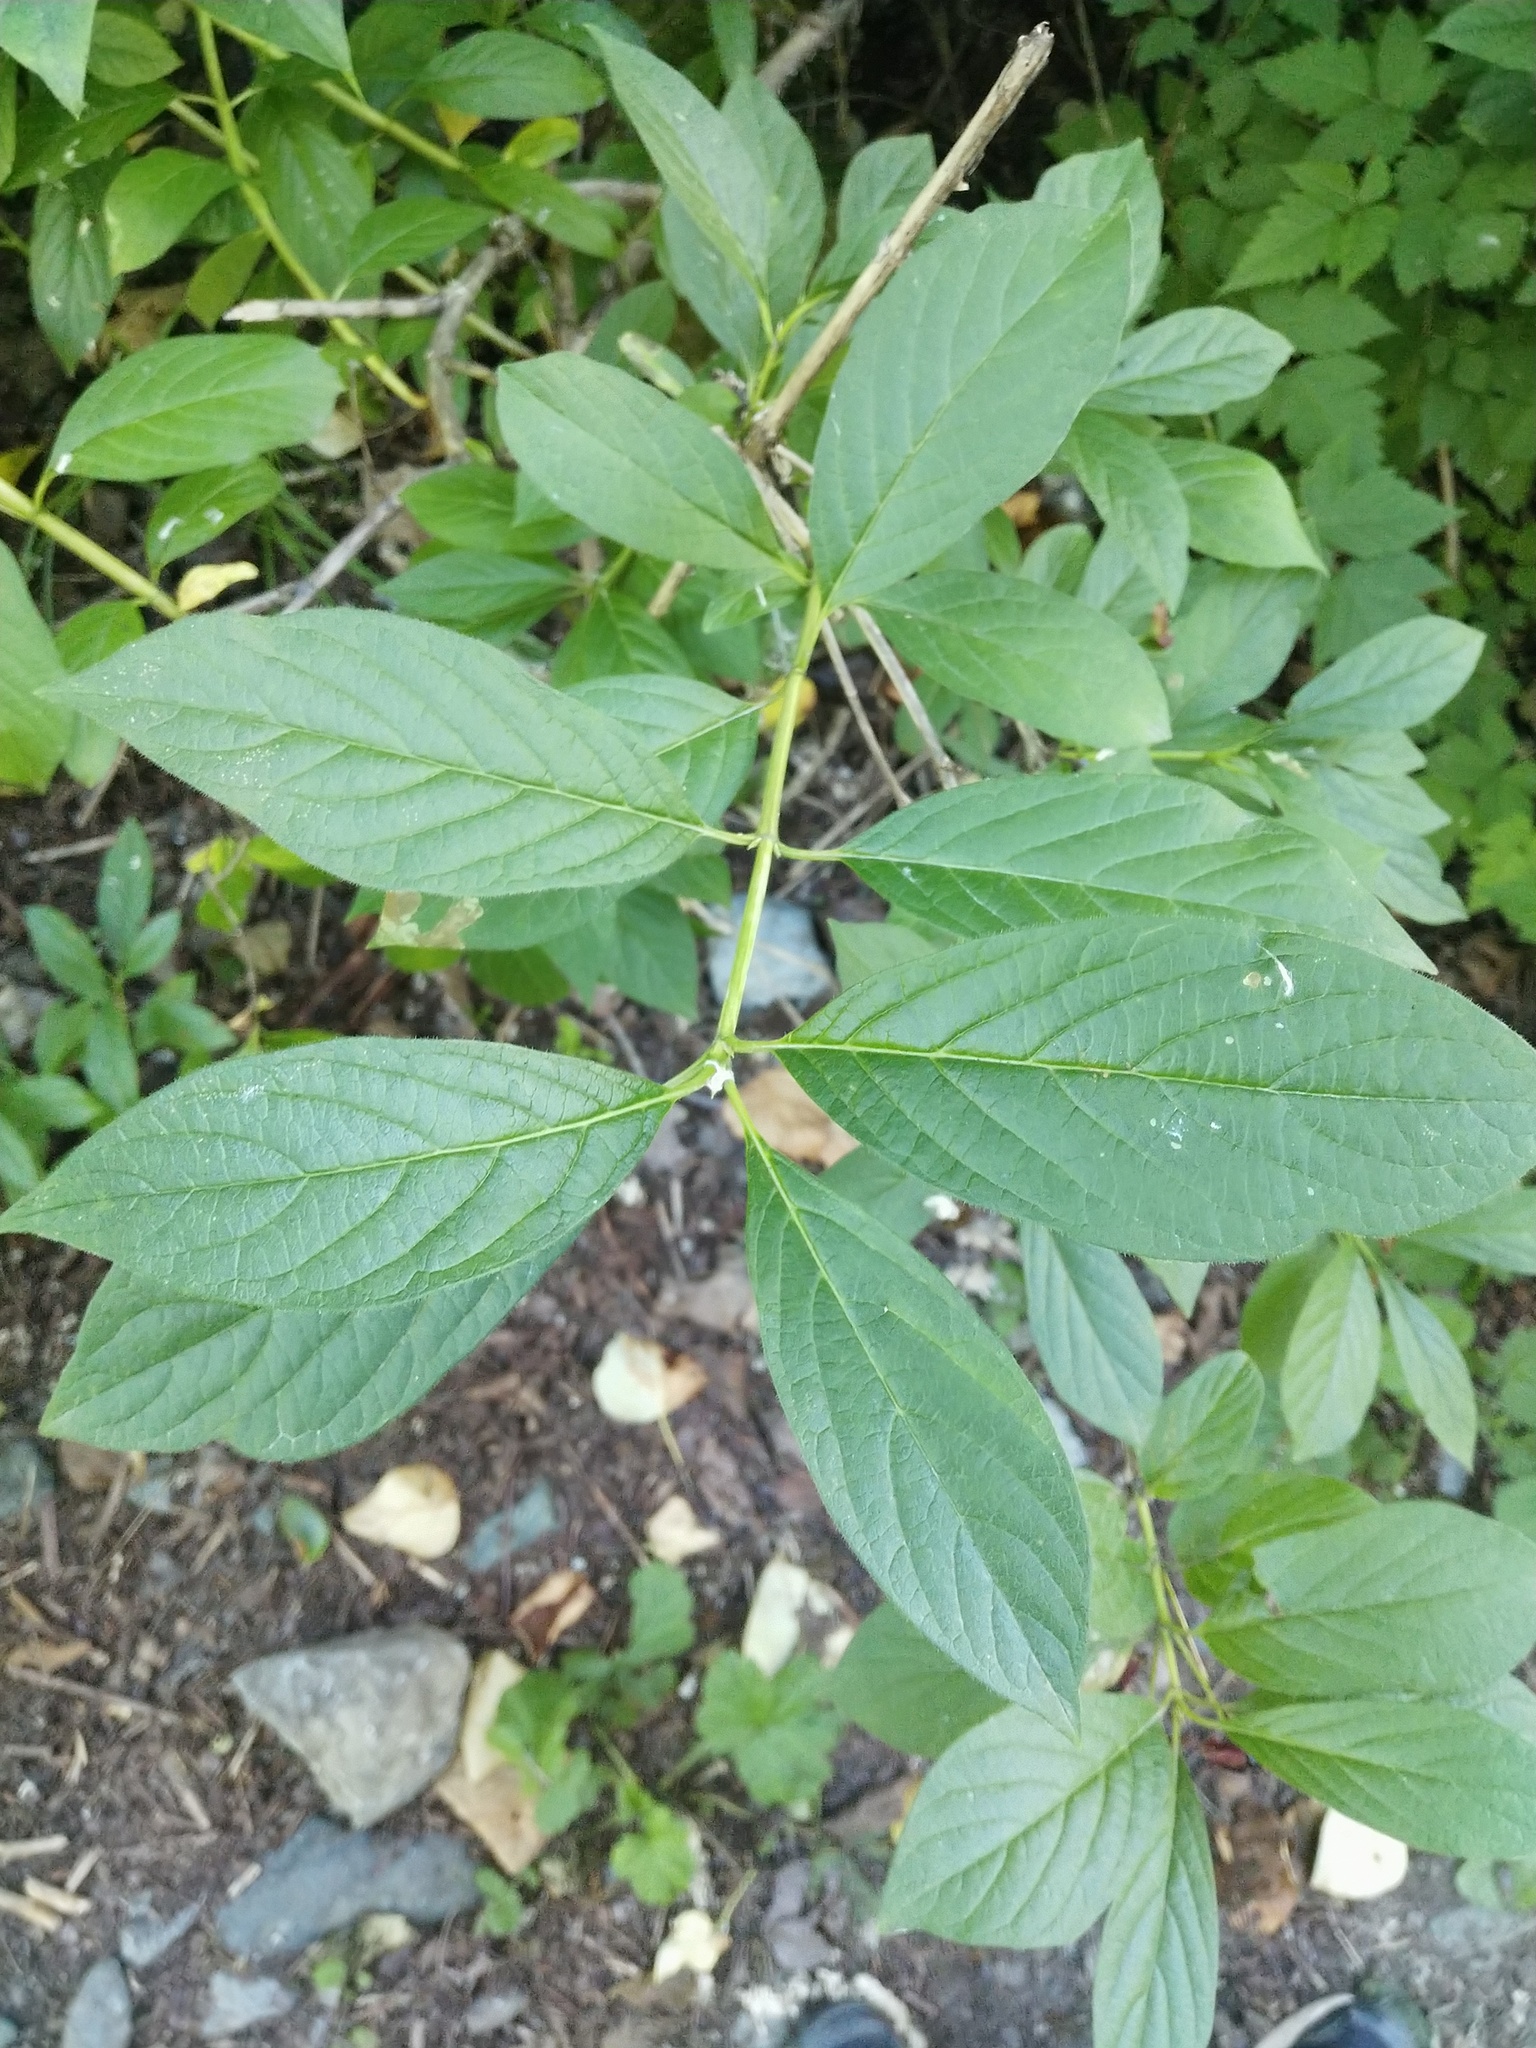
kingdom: Plantae
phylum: Tracheophyta
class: Magnoliopsida
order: Dipsacales
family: Caprifoliaceae
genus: Lonicera
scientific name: Lonicera involucrata
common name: Californian honeysuckle
